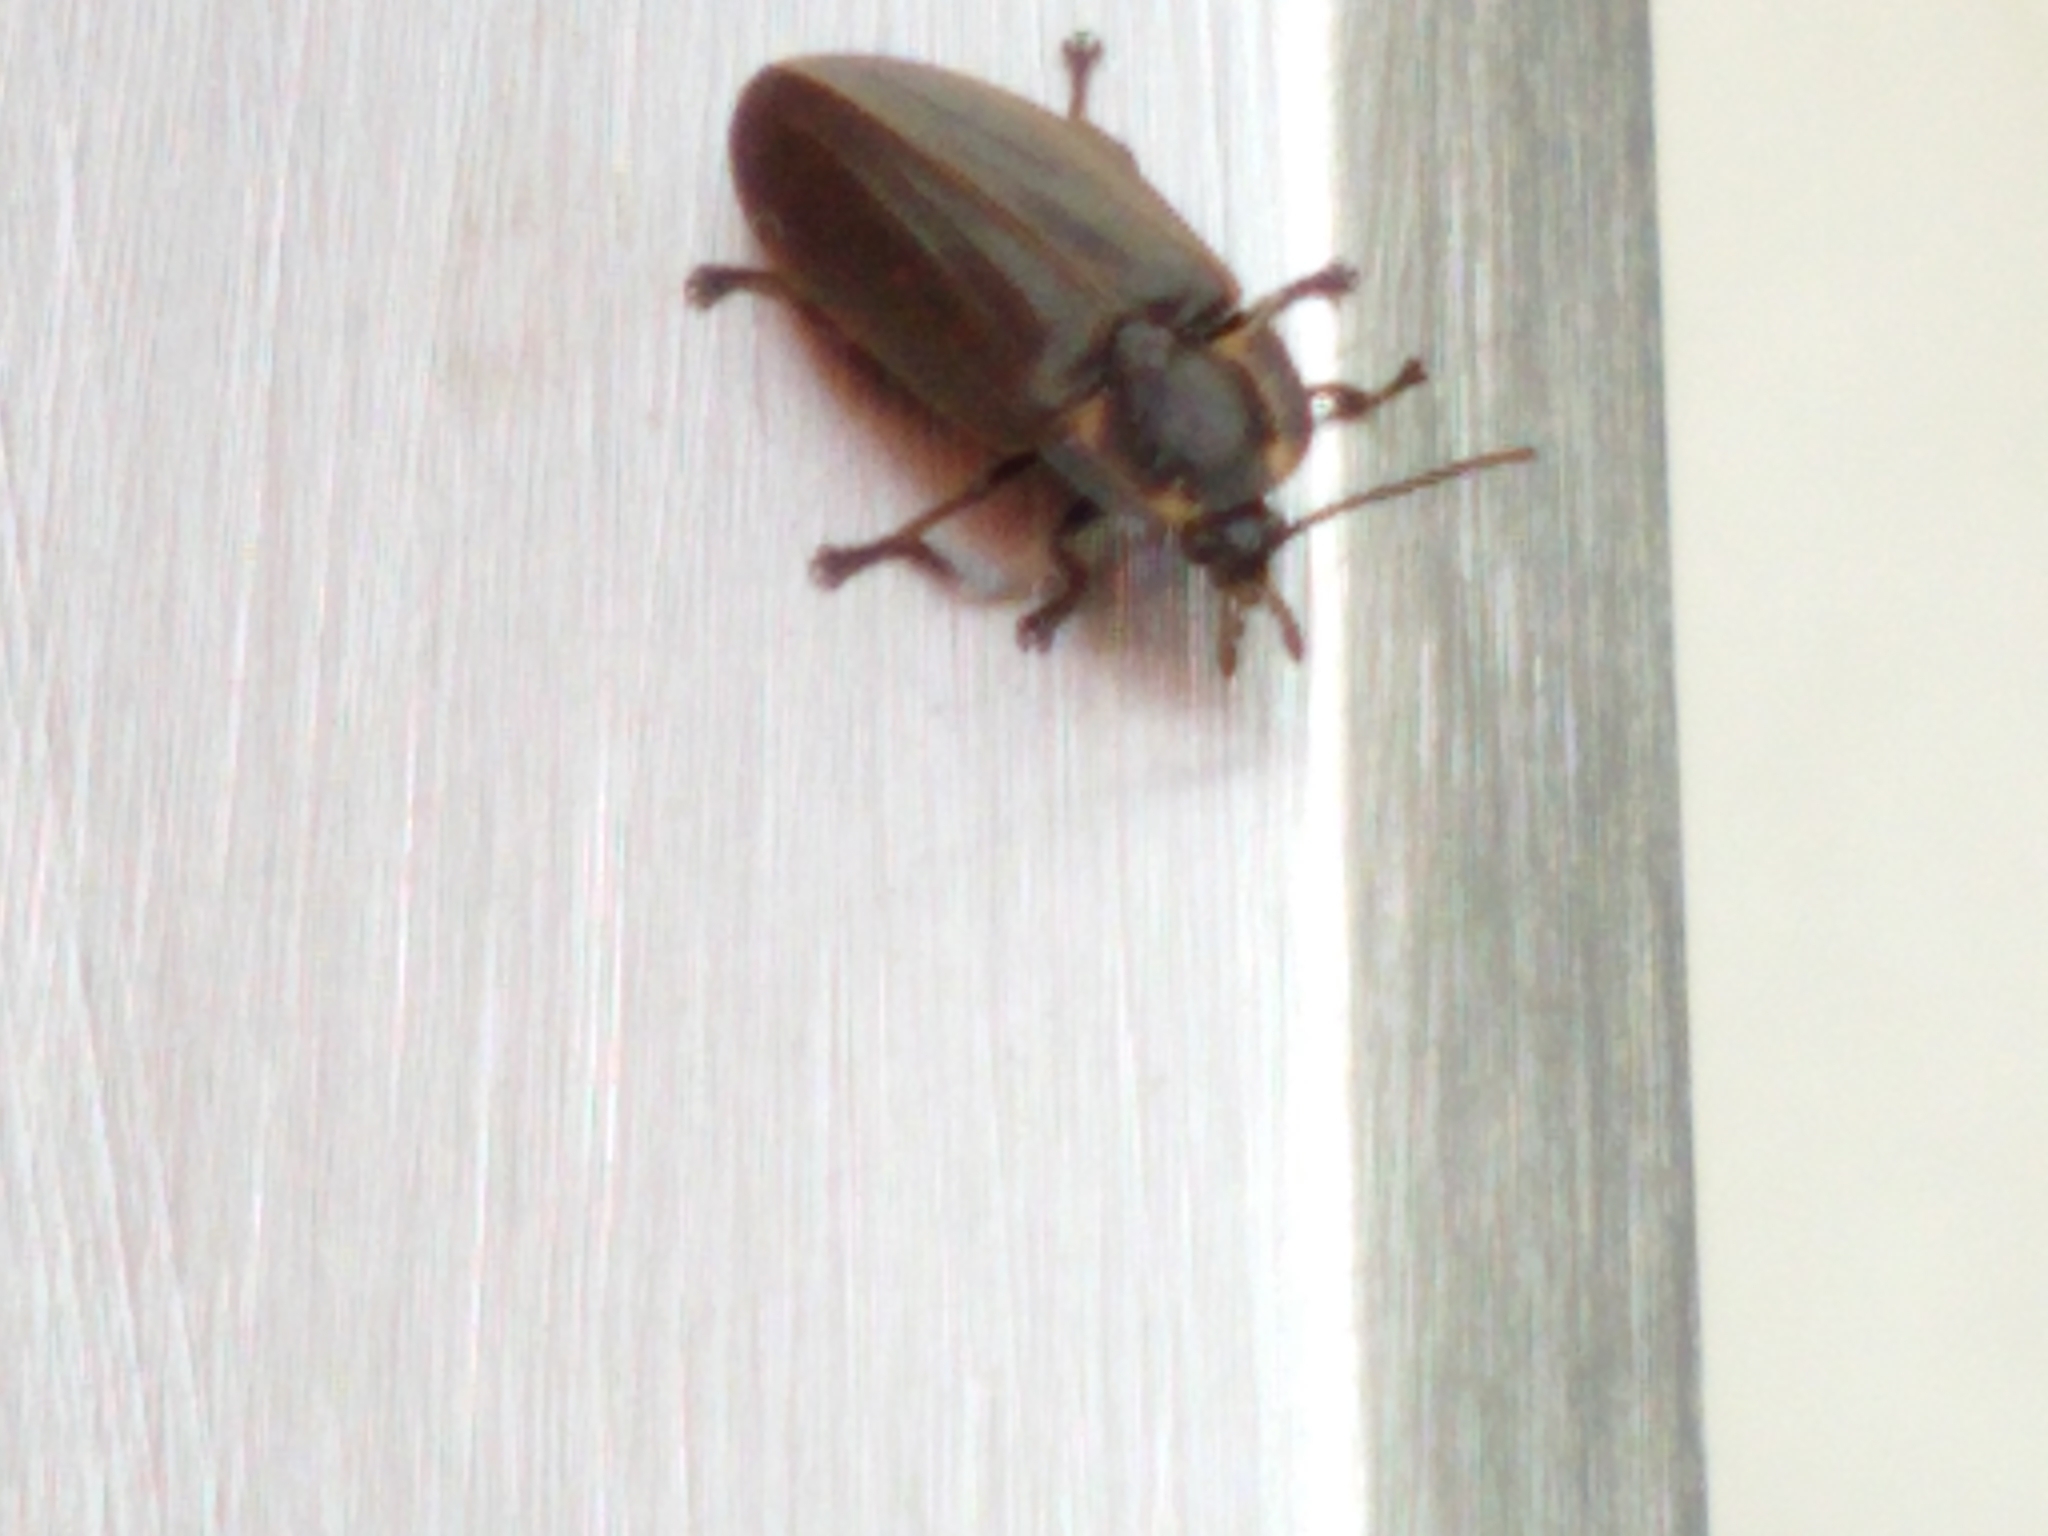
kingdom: Animalia
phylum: Arthropoda
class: Insecta
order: Coleoptera
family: Lampyridae
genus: Photinus
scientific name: Photinus corrusca
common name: Winter firefly
